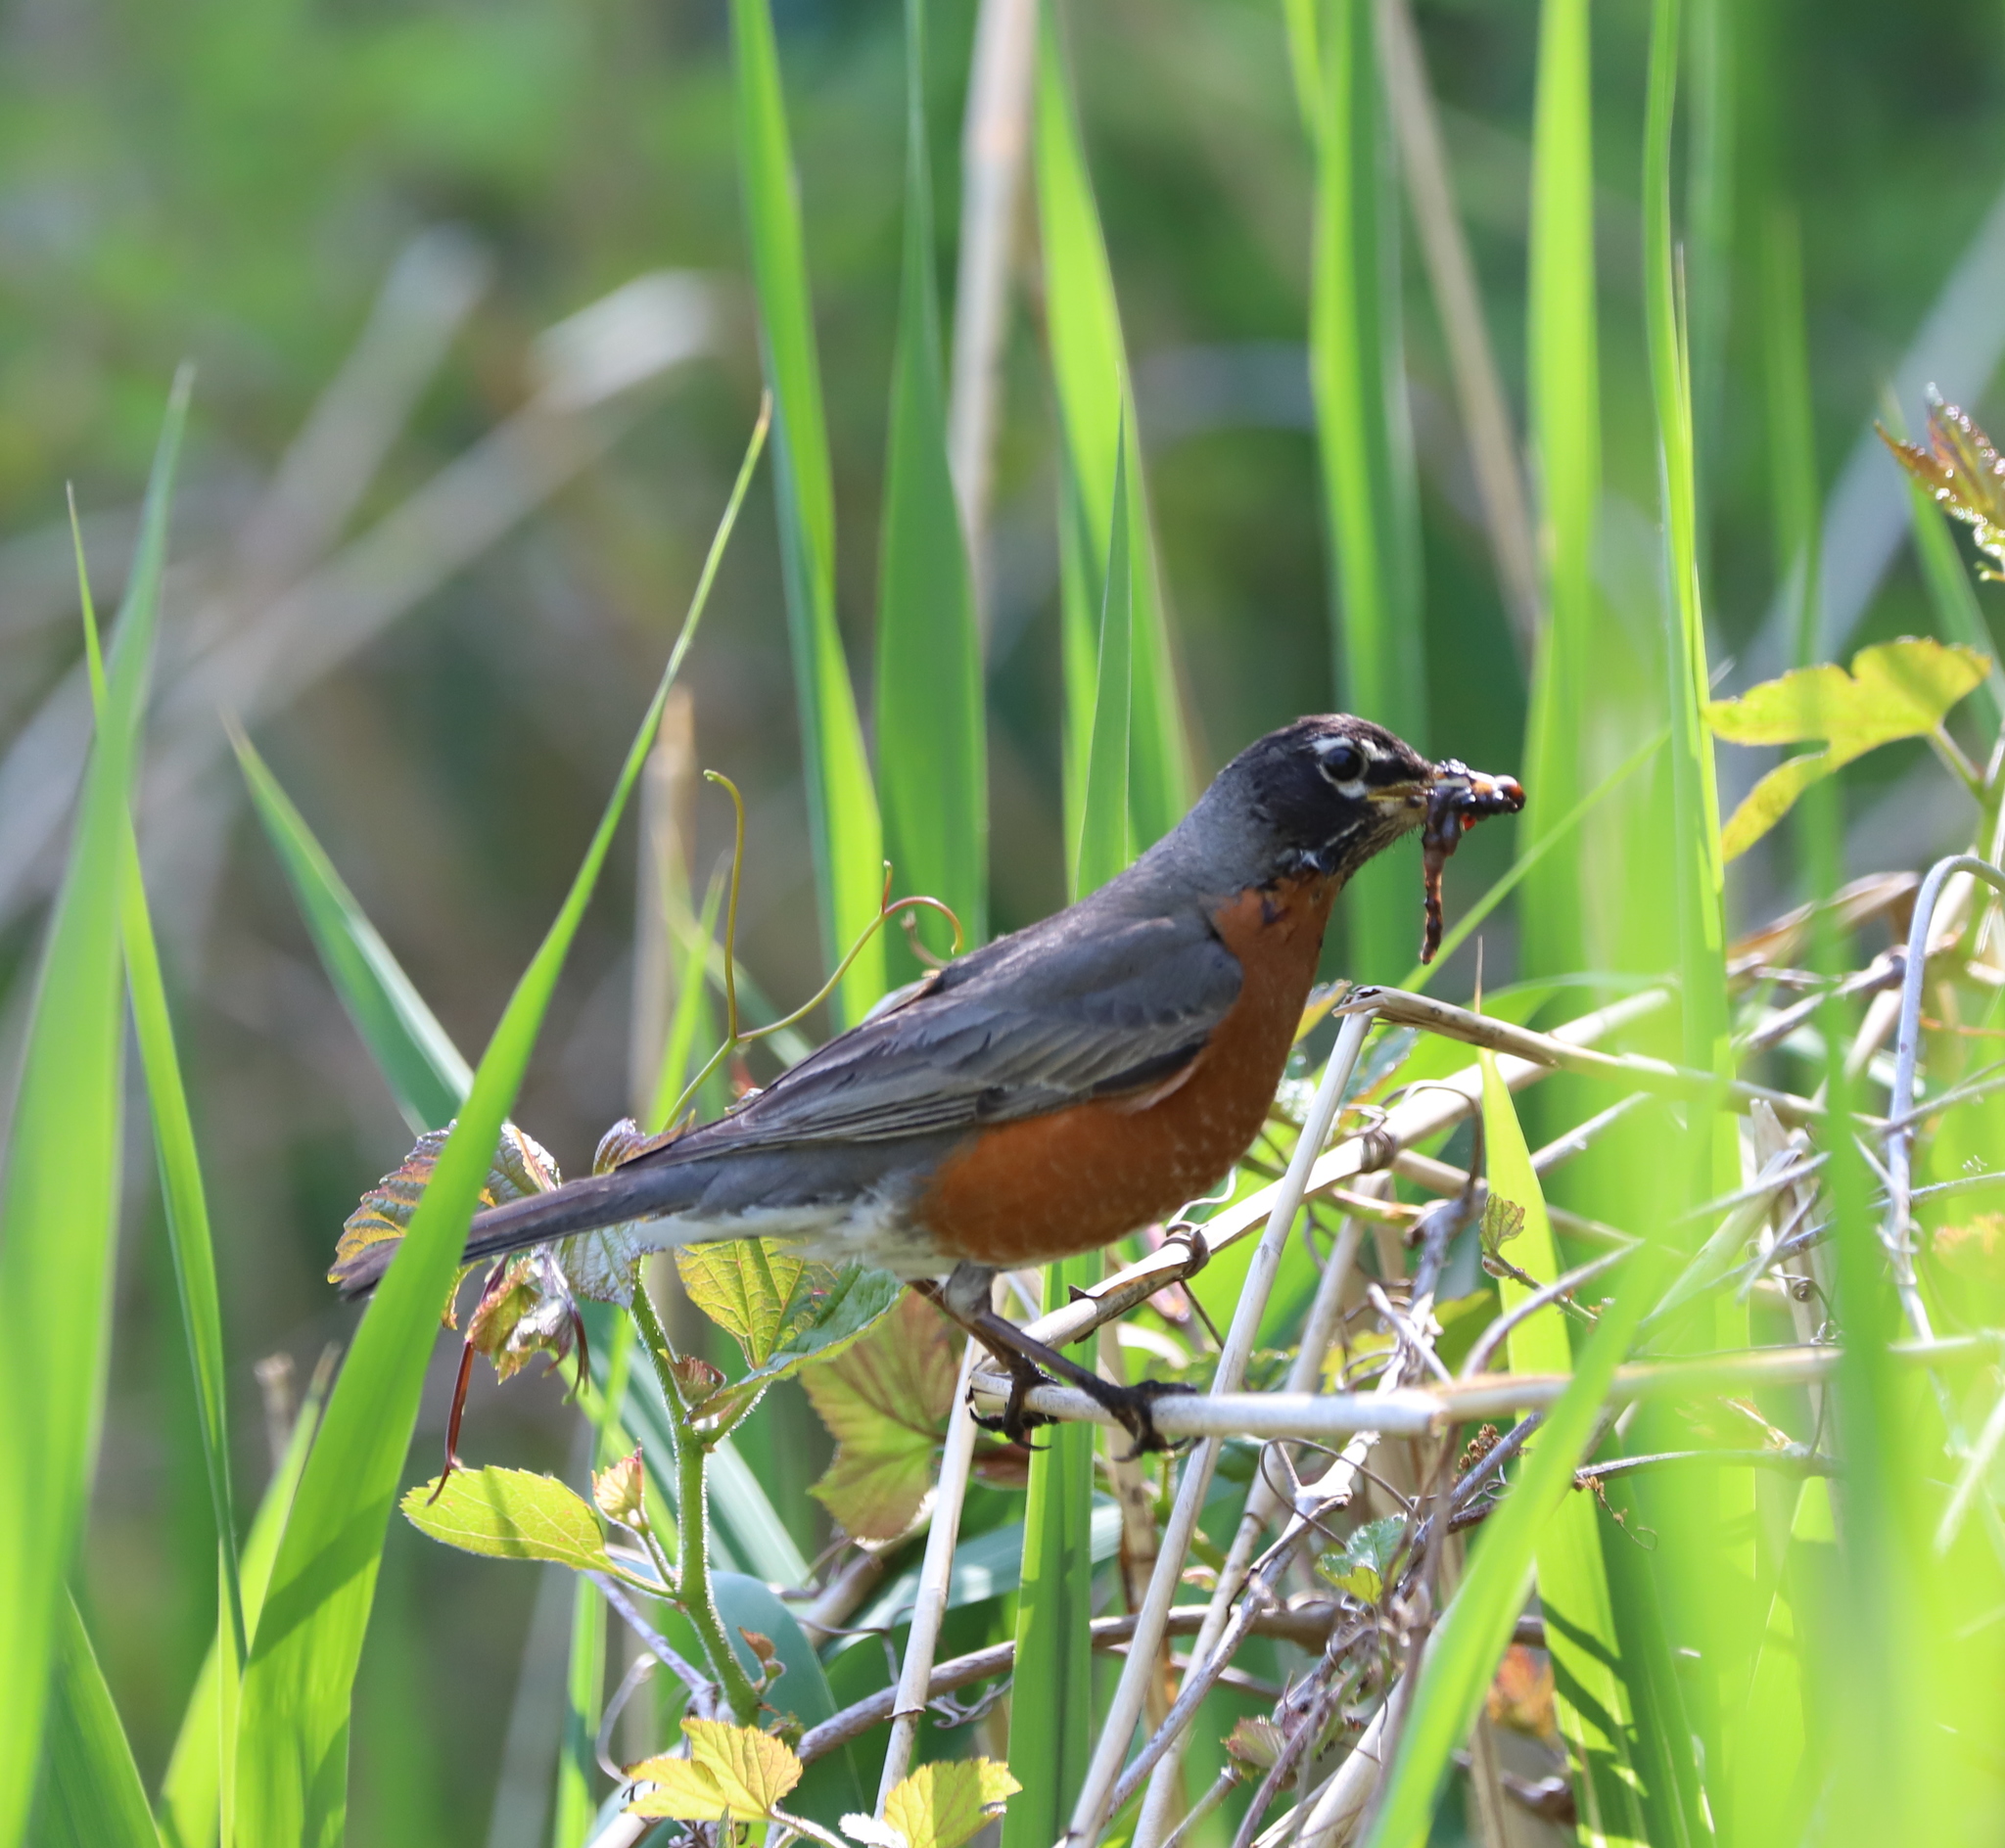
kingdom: Animalia
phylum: Chordata
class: Aves
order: Passeriformes
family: Turdidae
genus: Turdus
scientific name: Turdus migratorius
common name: American robin
